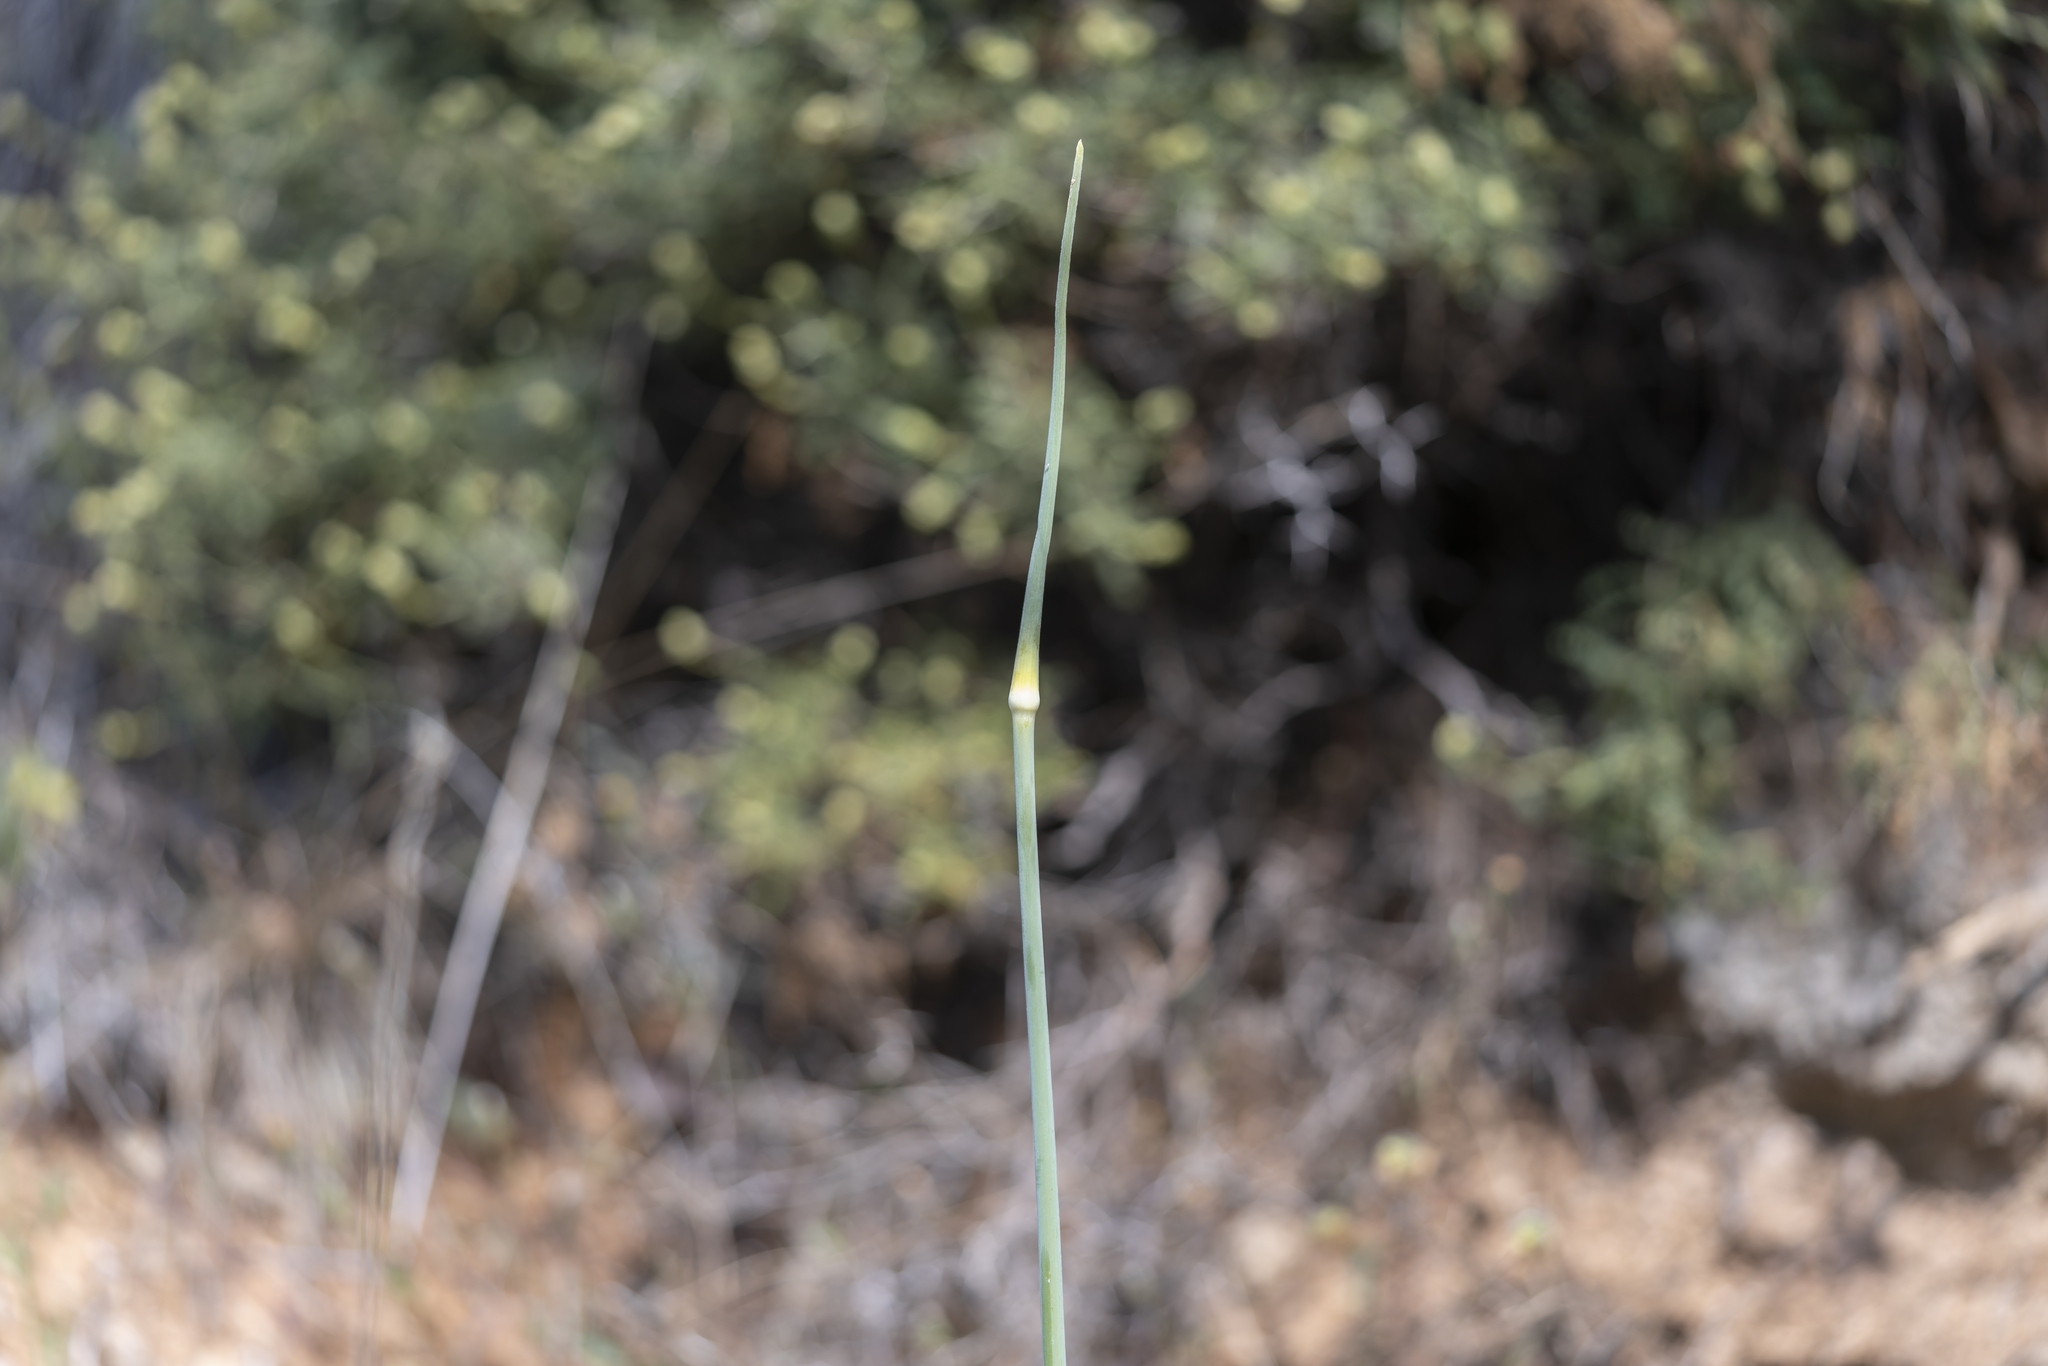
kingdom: Plantae
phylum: Tracheophyta
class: Liliopsida
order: Asparagales
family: Amaryllidaceae
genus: Allium
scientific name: Allium bourgeaui
